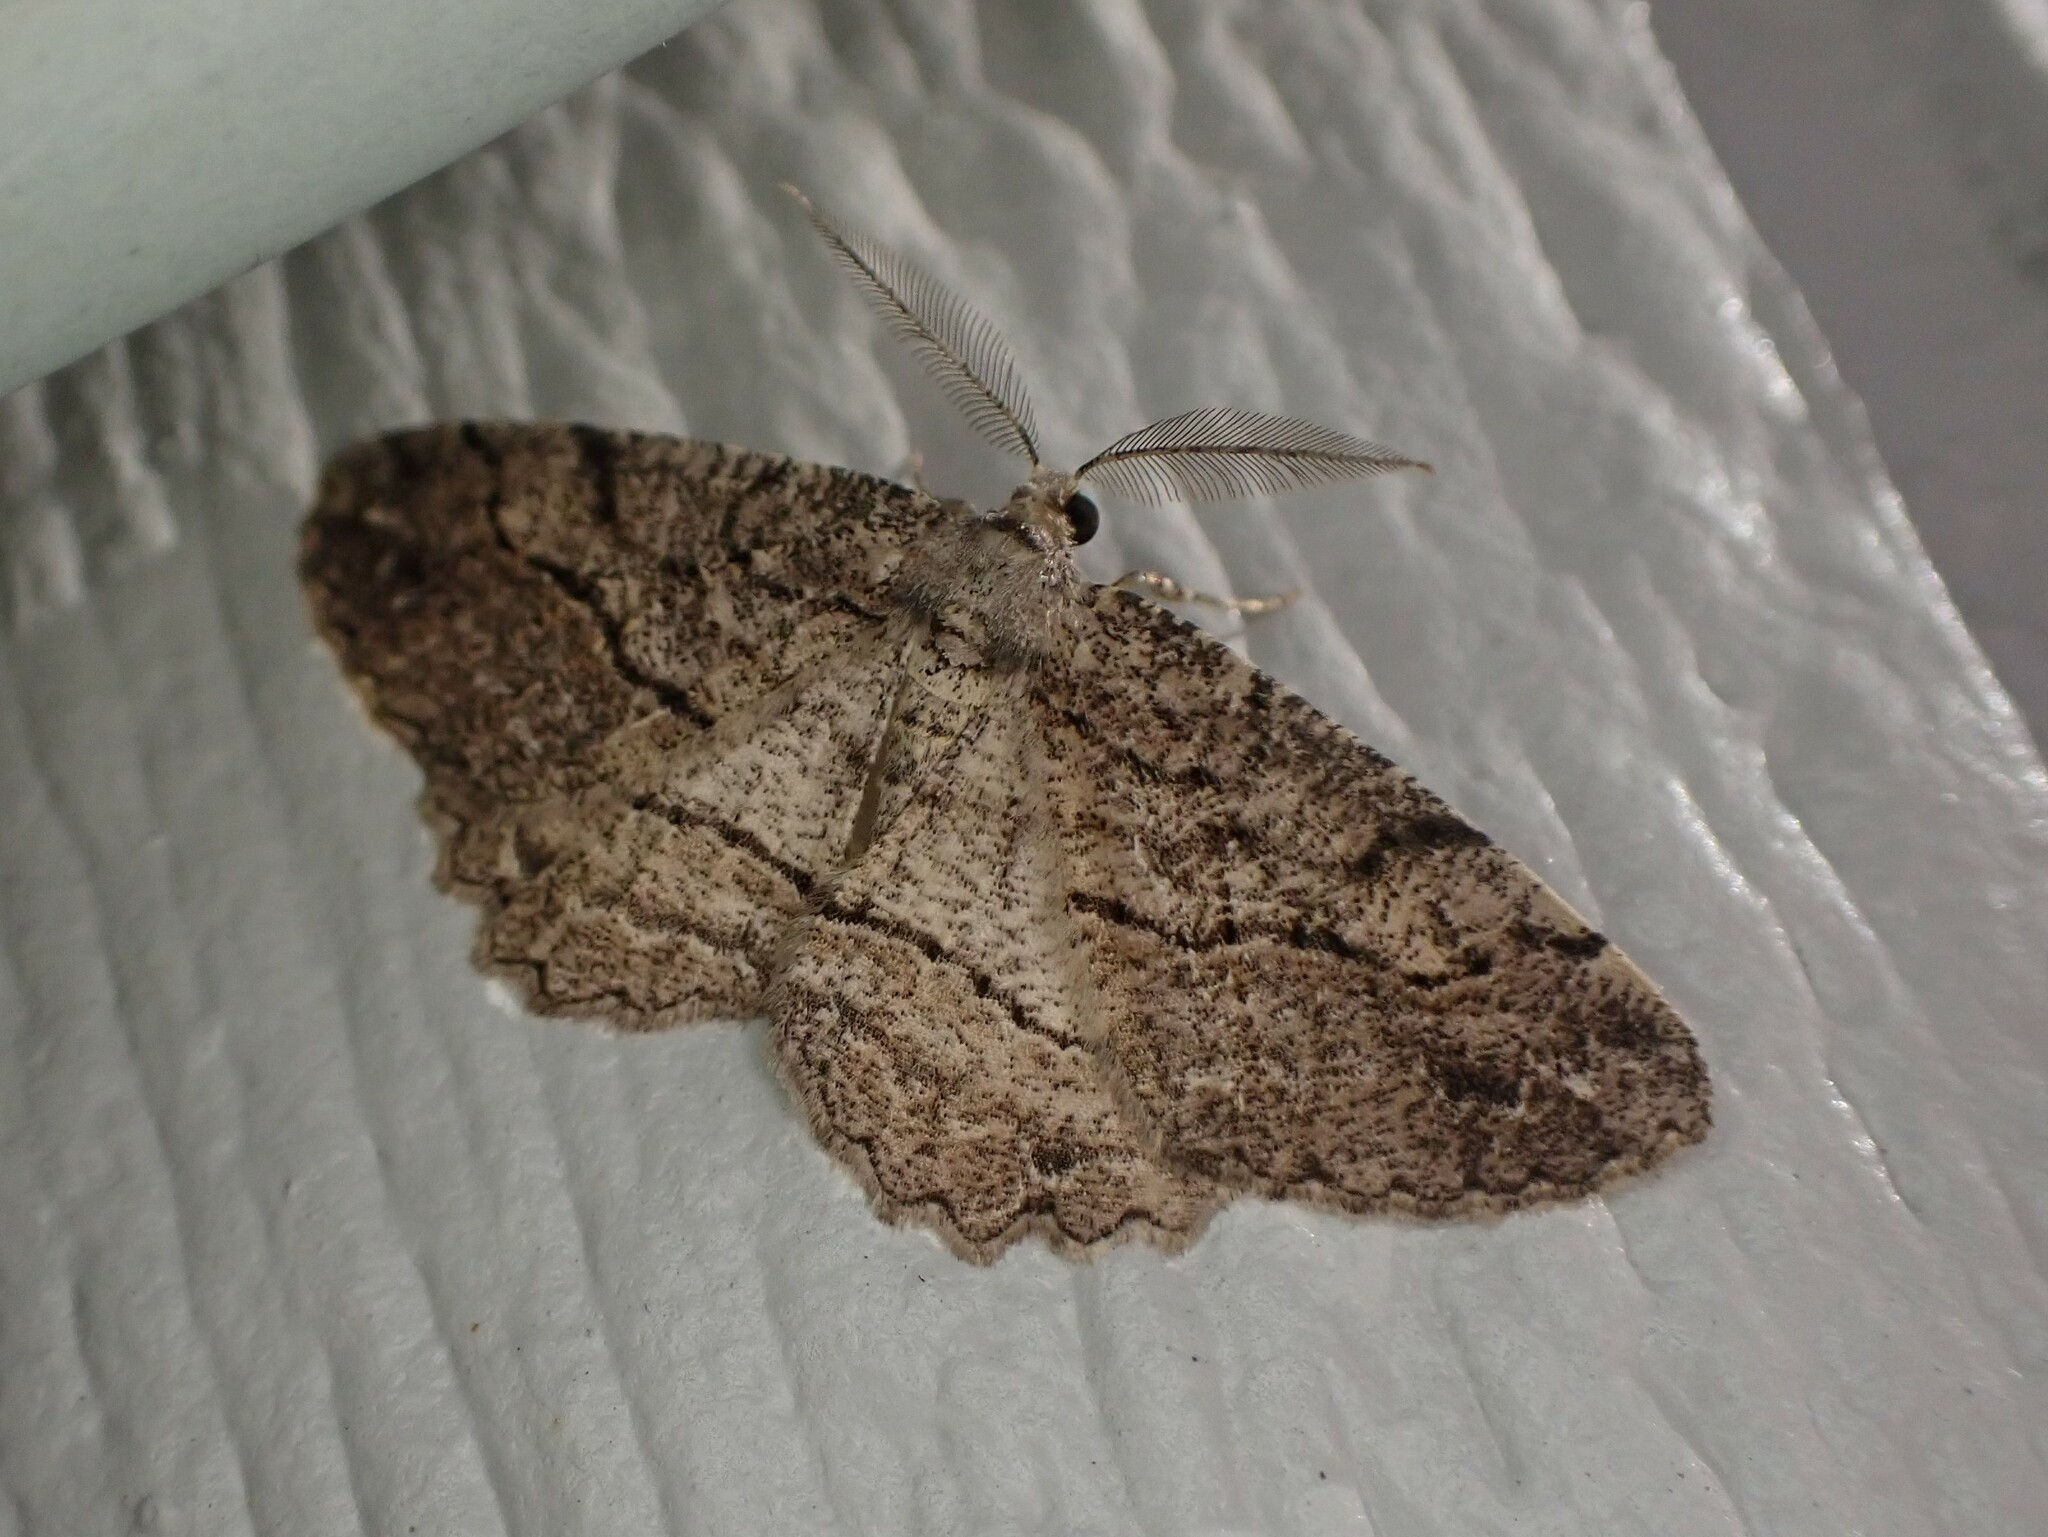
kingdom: Animalia
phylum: Arthropoda
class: Insecta
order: Lepidoptera
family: Geometridae
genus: Neoalcis
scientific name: Neoalcis californiaria
